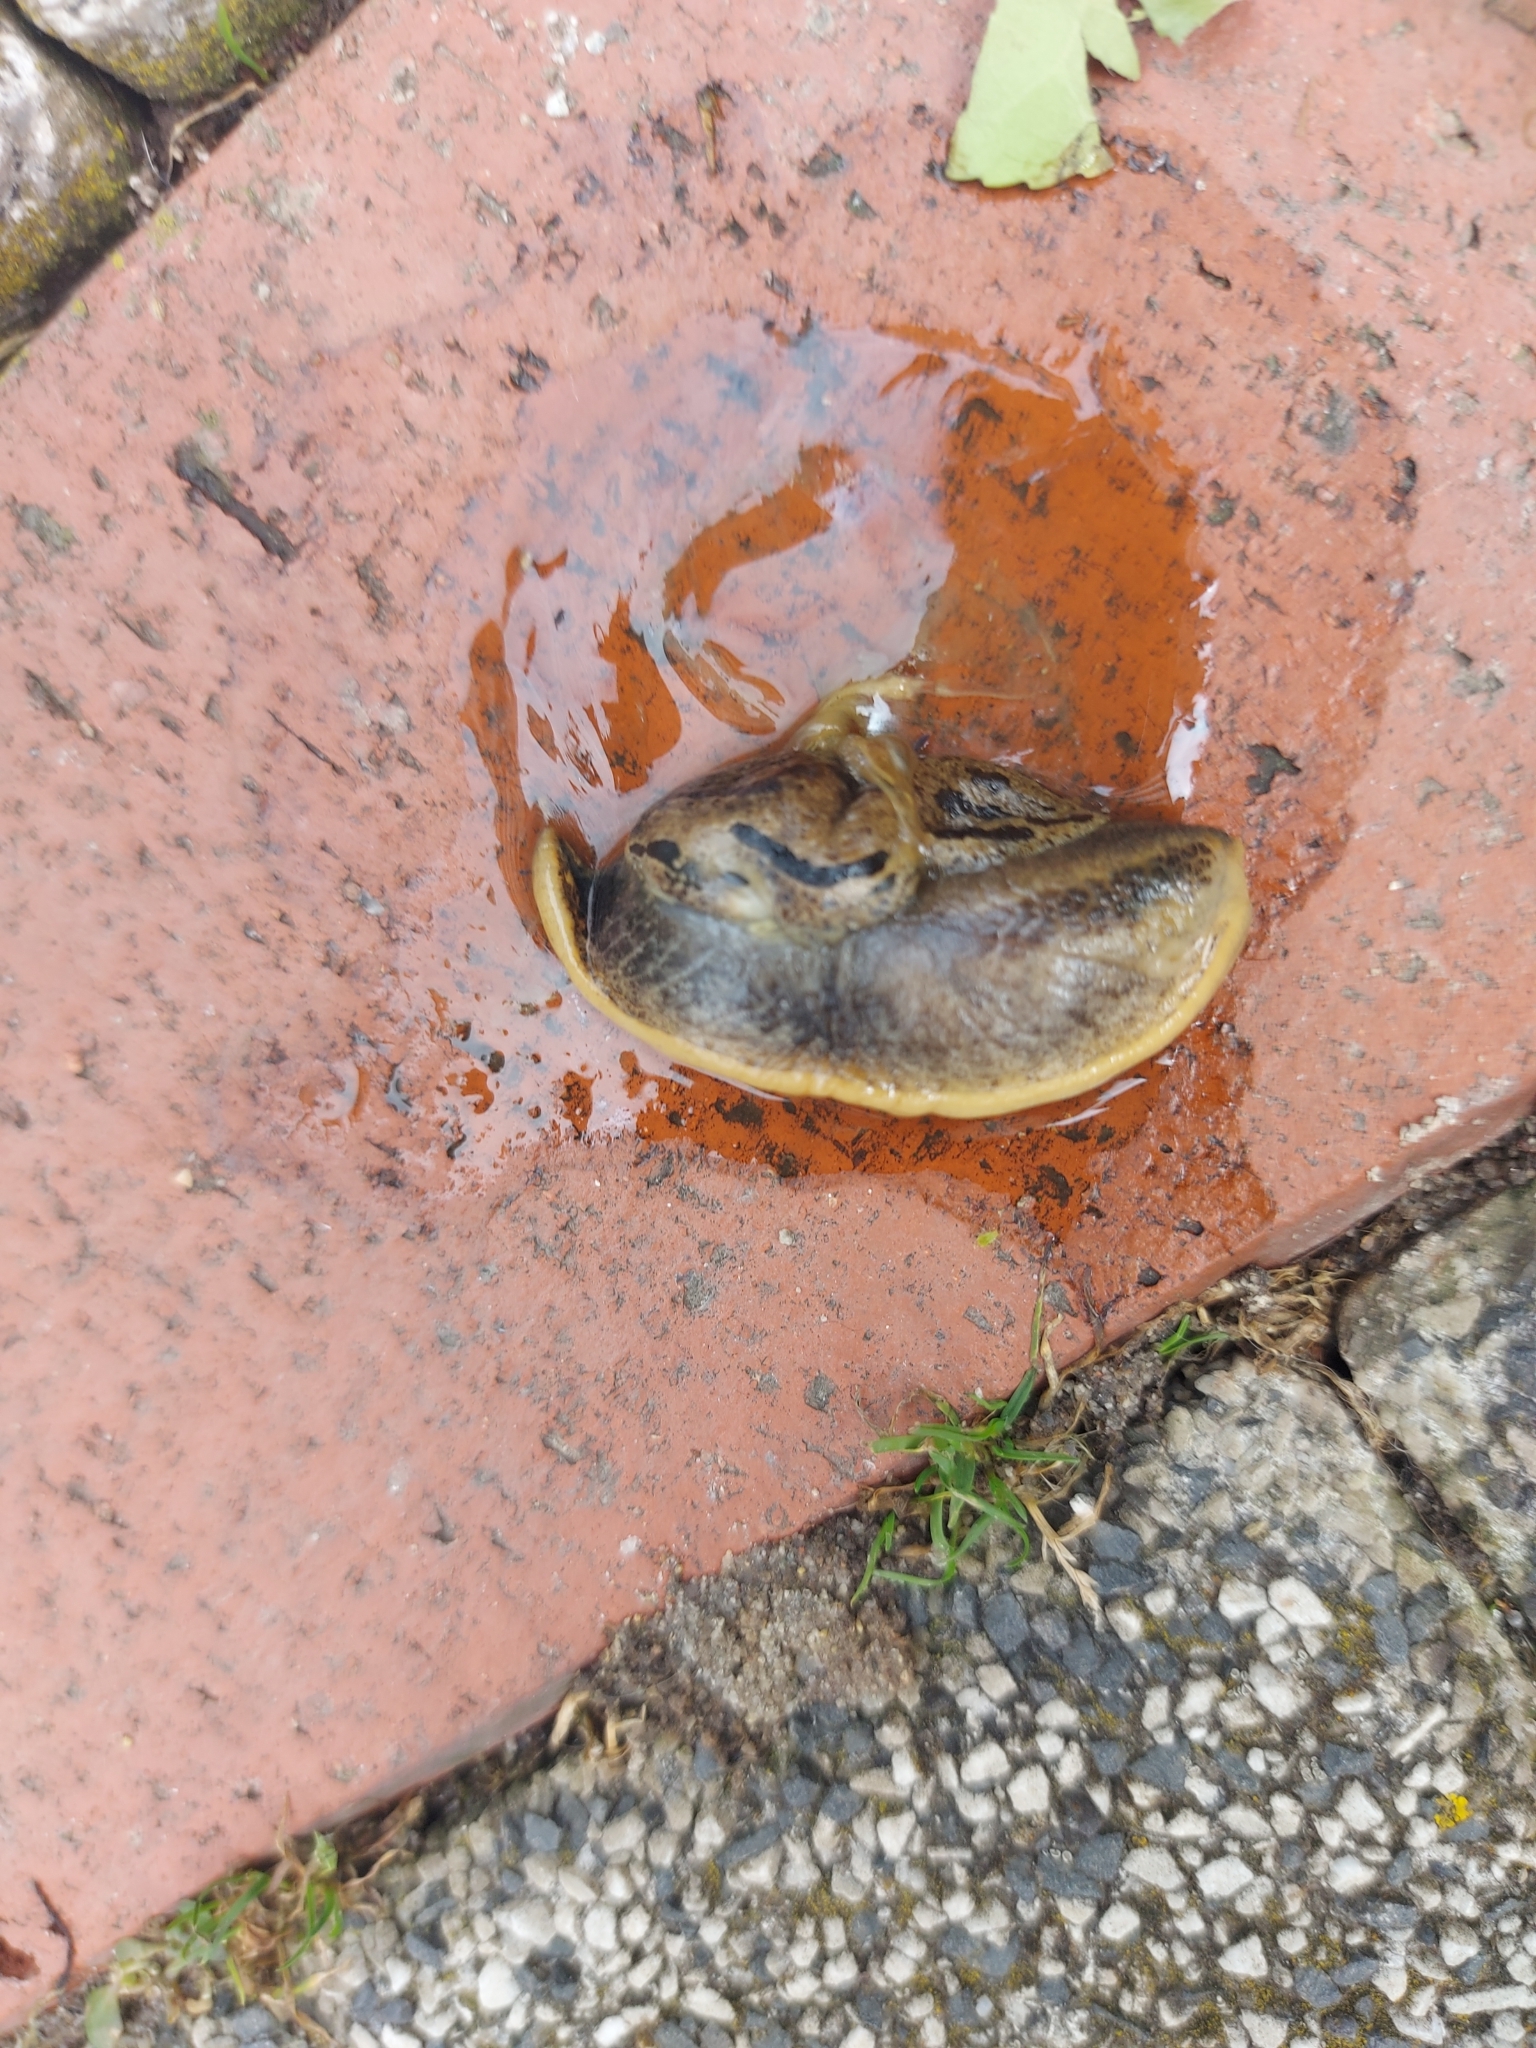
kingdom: Animalia
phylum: Mollusca
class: Gastropoda
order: Stylommatophora
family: Parmacellidae
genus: Drusia
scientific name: Drusia ibera
